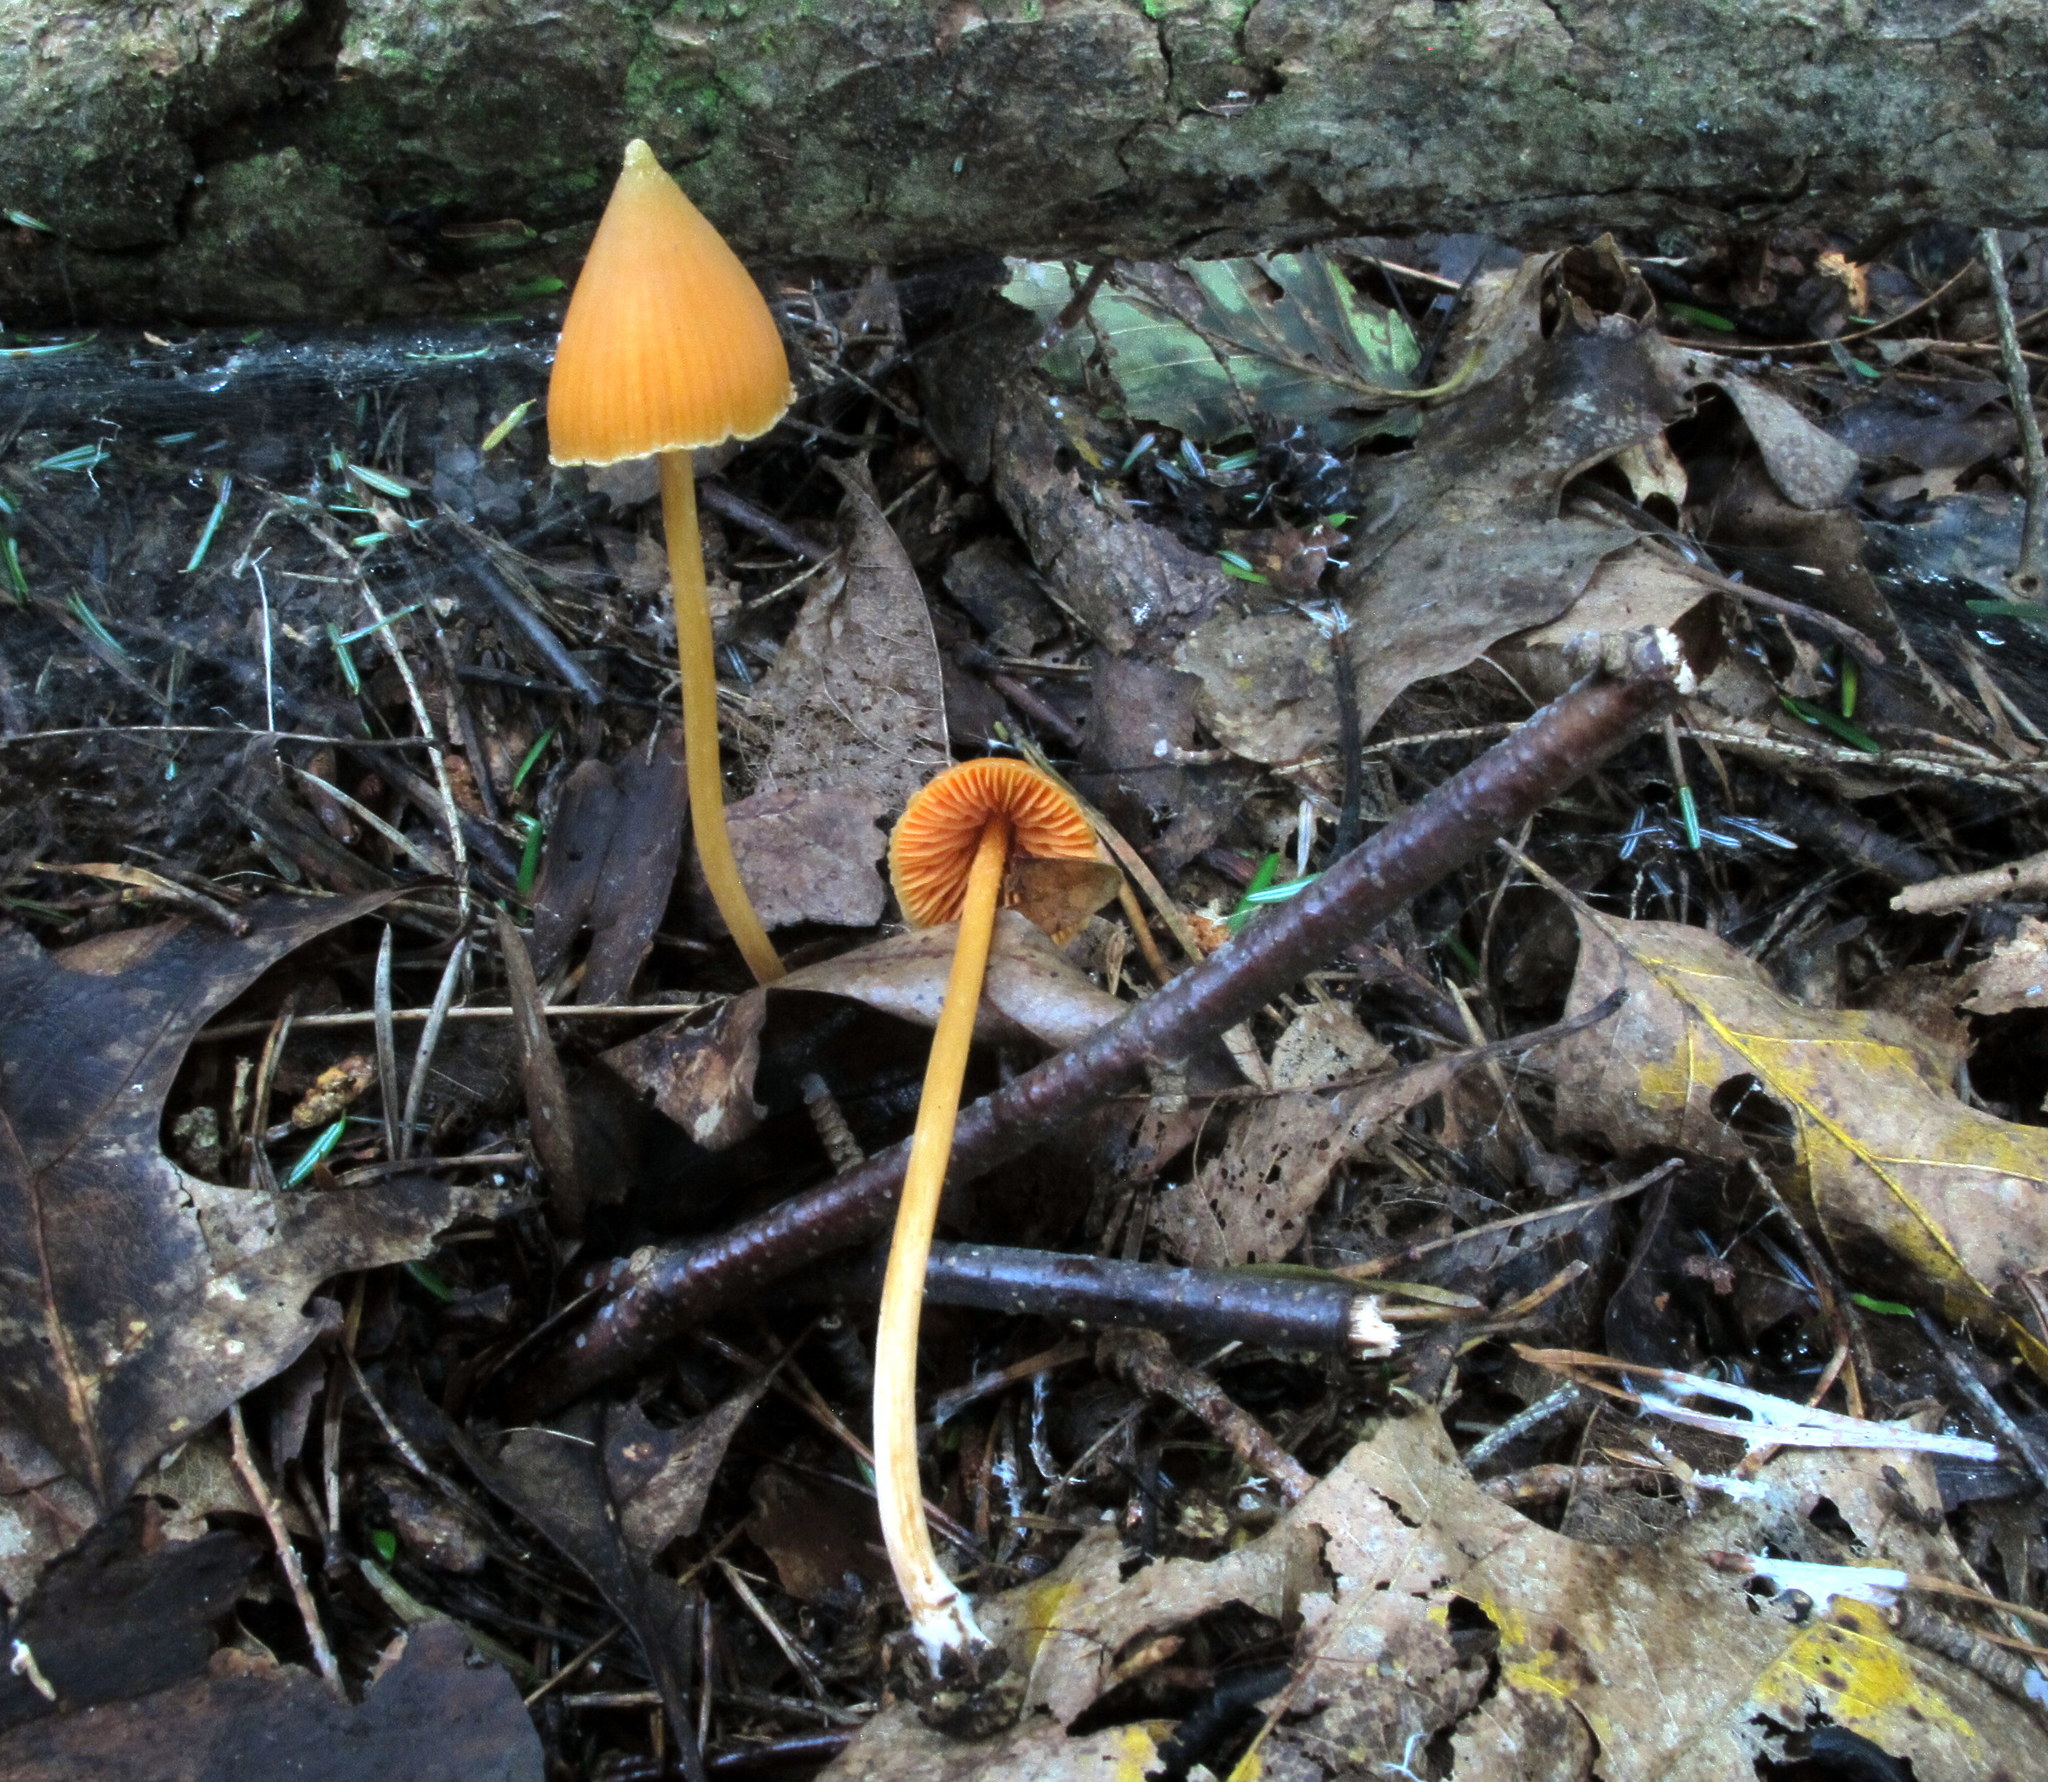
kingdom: Fungi
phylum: Basidiomycota
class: Agaricomycetes
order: Agaricales
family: Entolomataceae
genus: Entoloma
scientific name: Entoloma salmoneum
